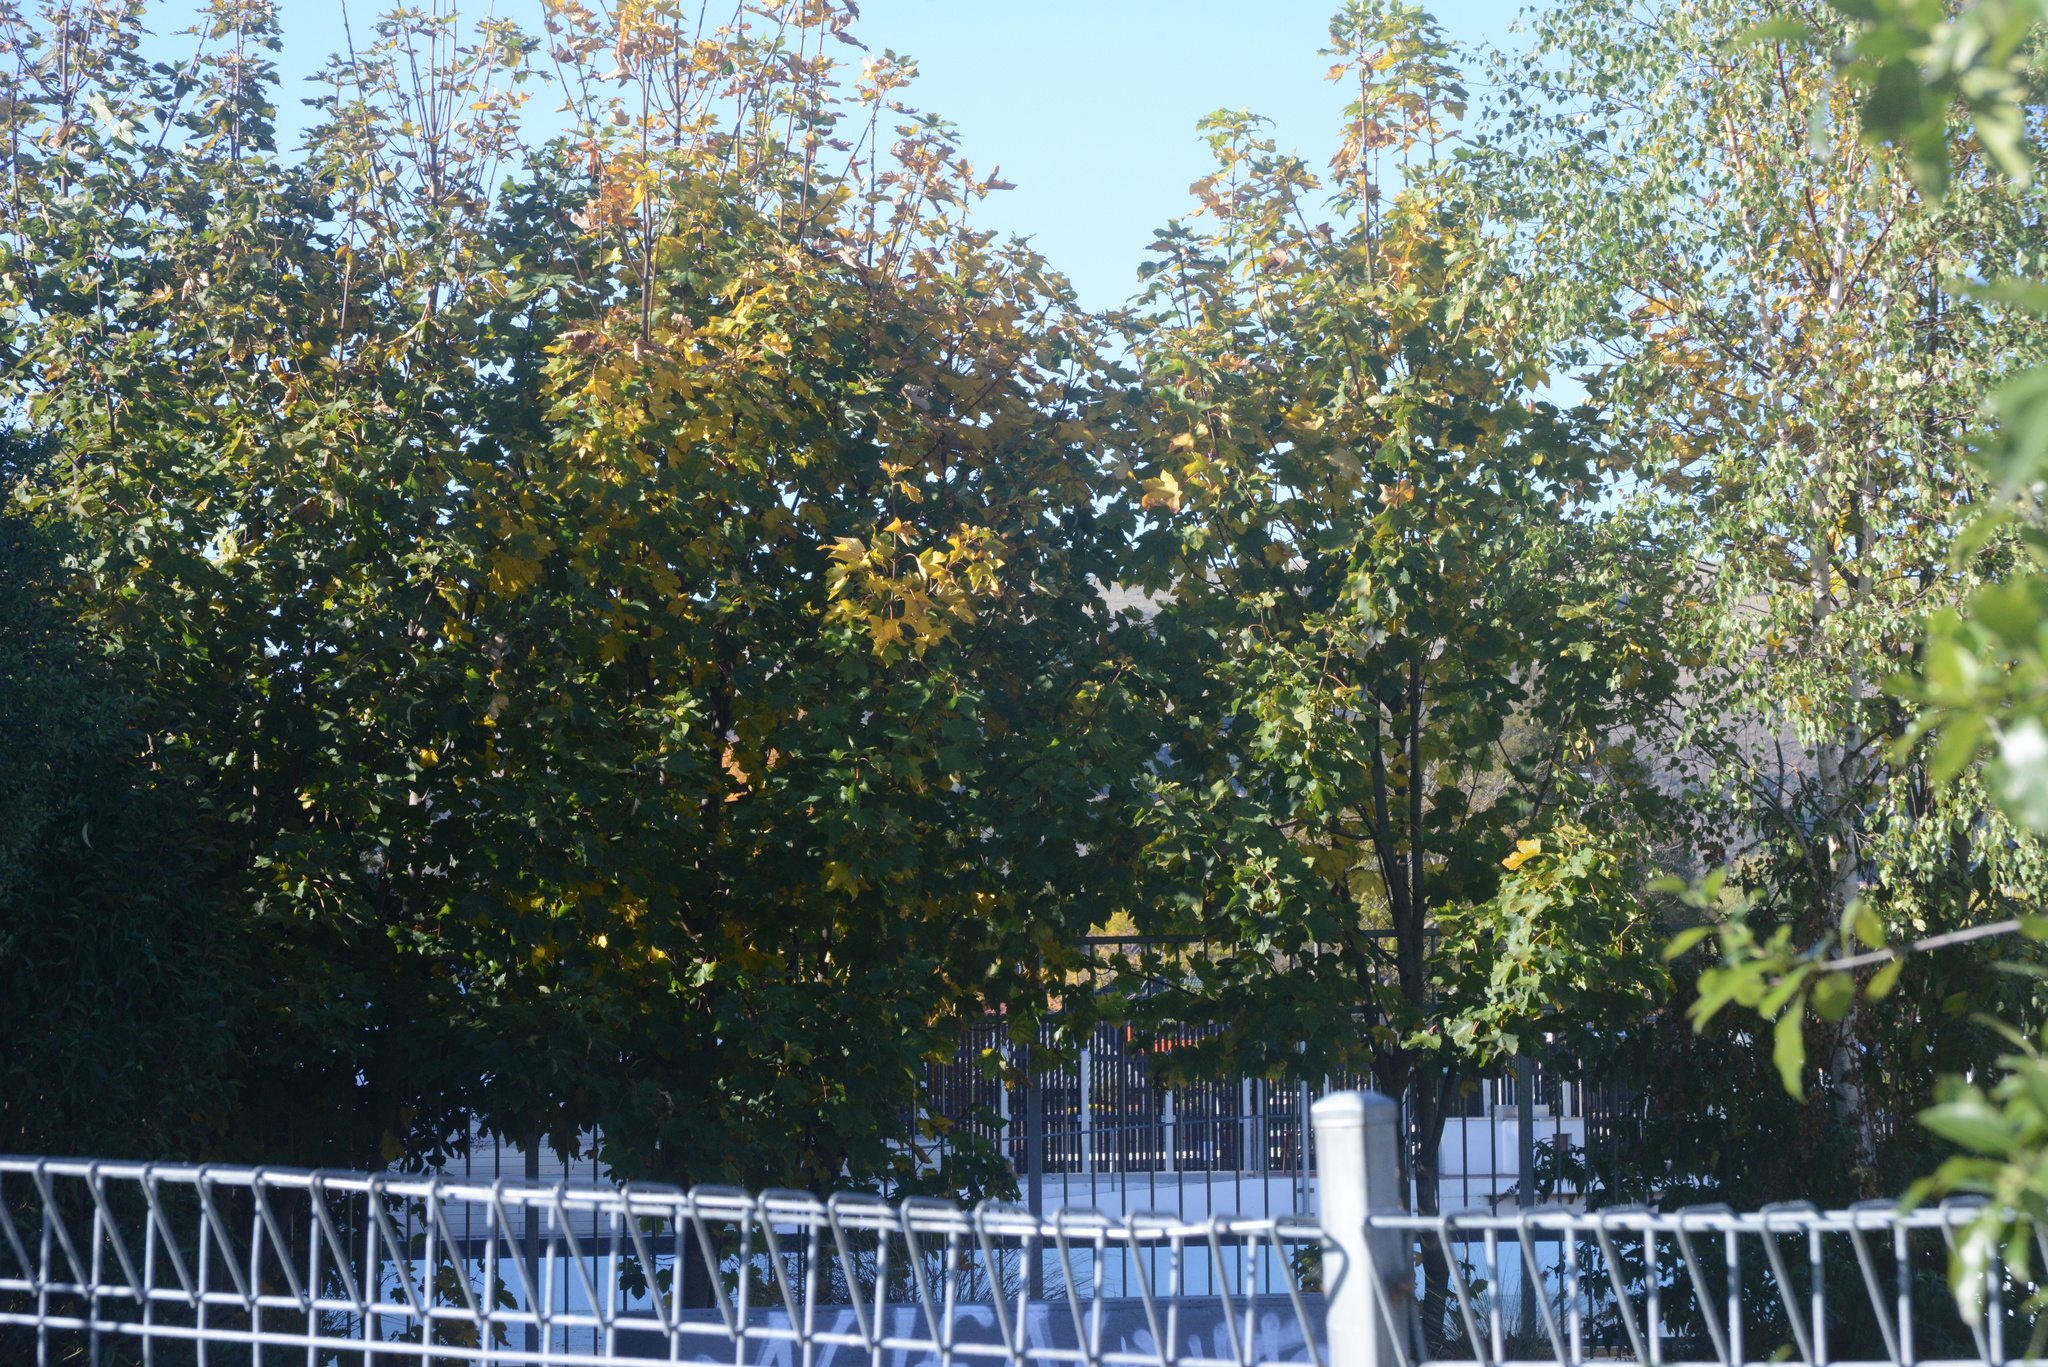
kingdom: Plantae
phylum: Tracheophyta
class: Magnoliopsida
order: Sapindales
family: Sapindaceae
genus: Acer
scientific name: Acer pseudoplatanus
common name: Sycamore
